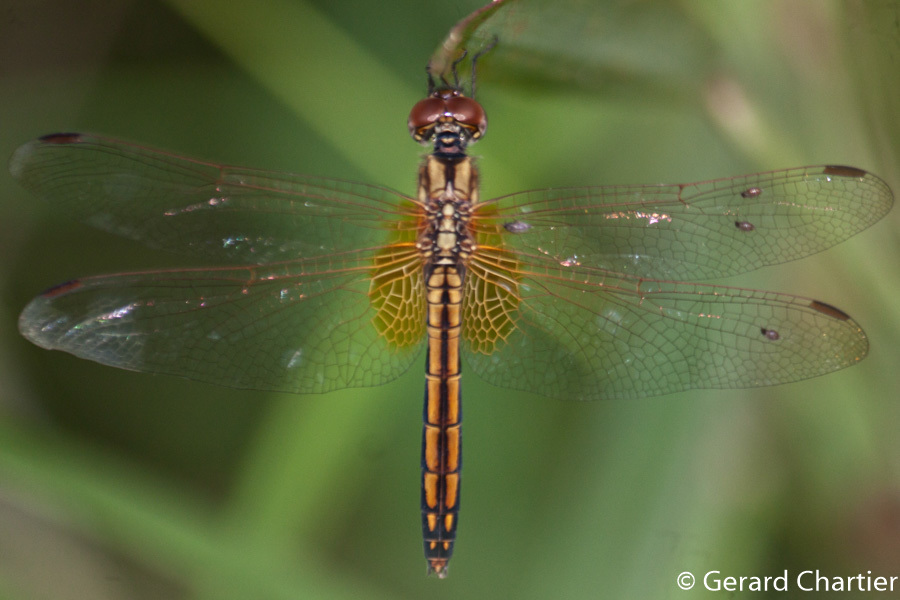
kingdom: Animalia
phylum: Arthropoda
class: Insecta
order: Odonata
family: Libellulidae
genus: Trithemis
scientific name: Trithemis aurora
